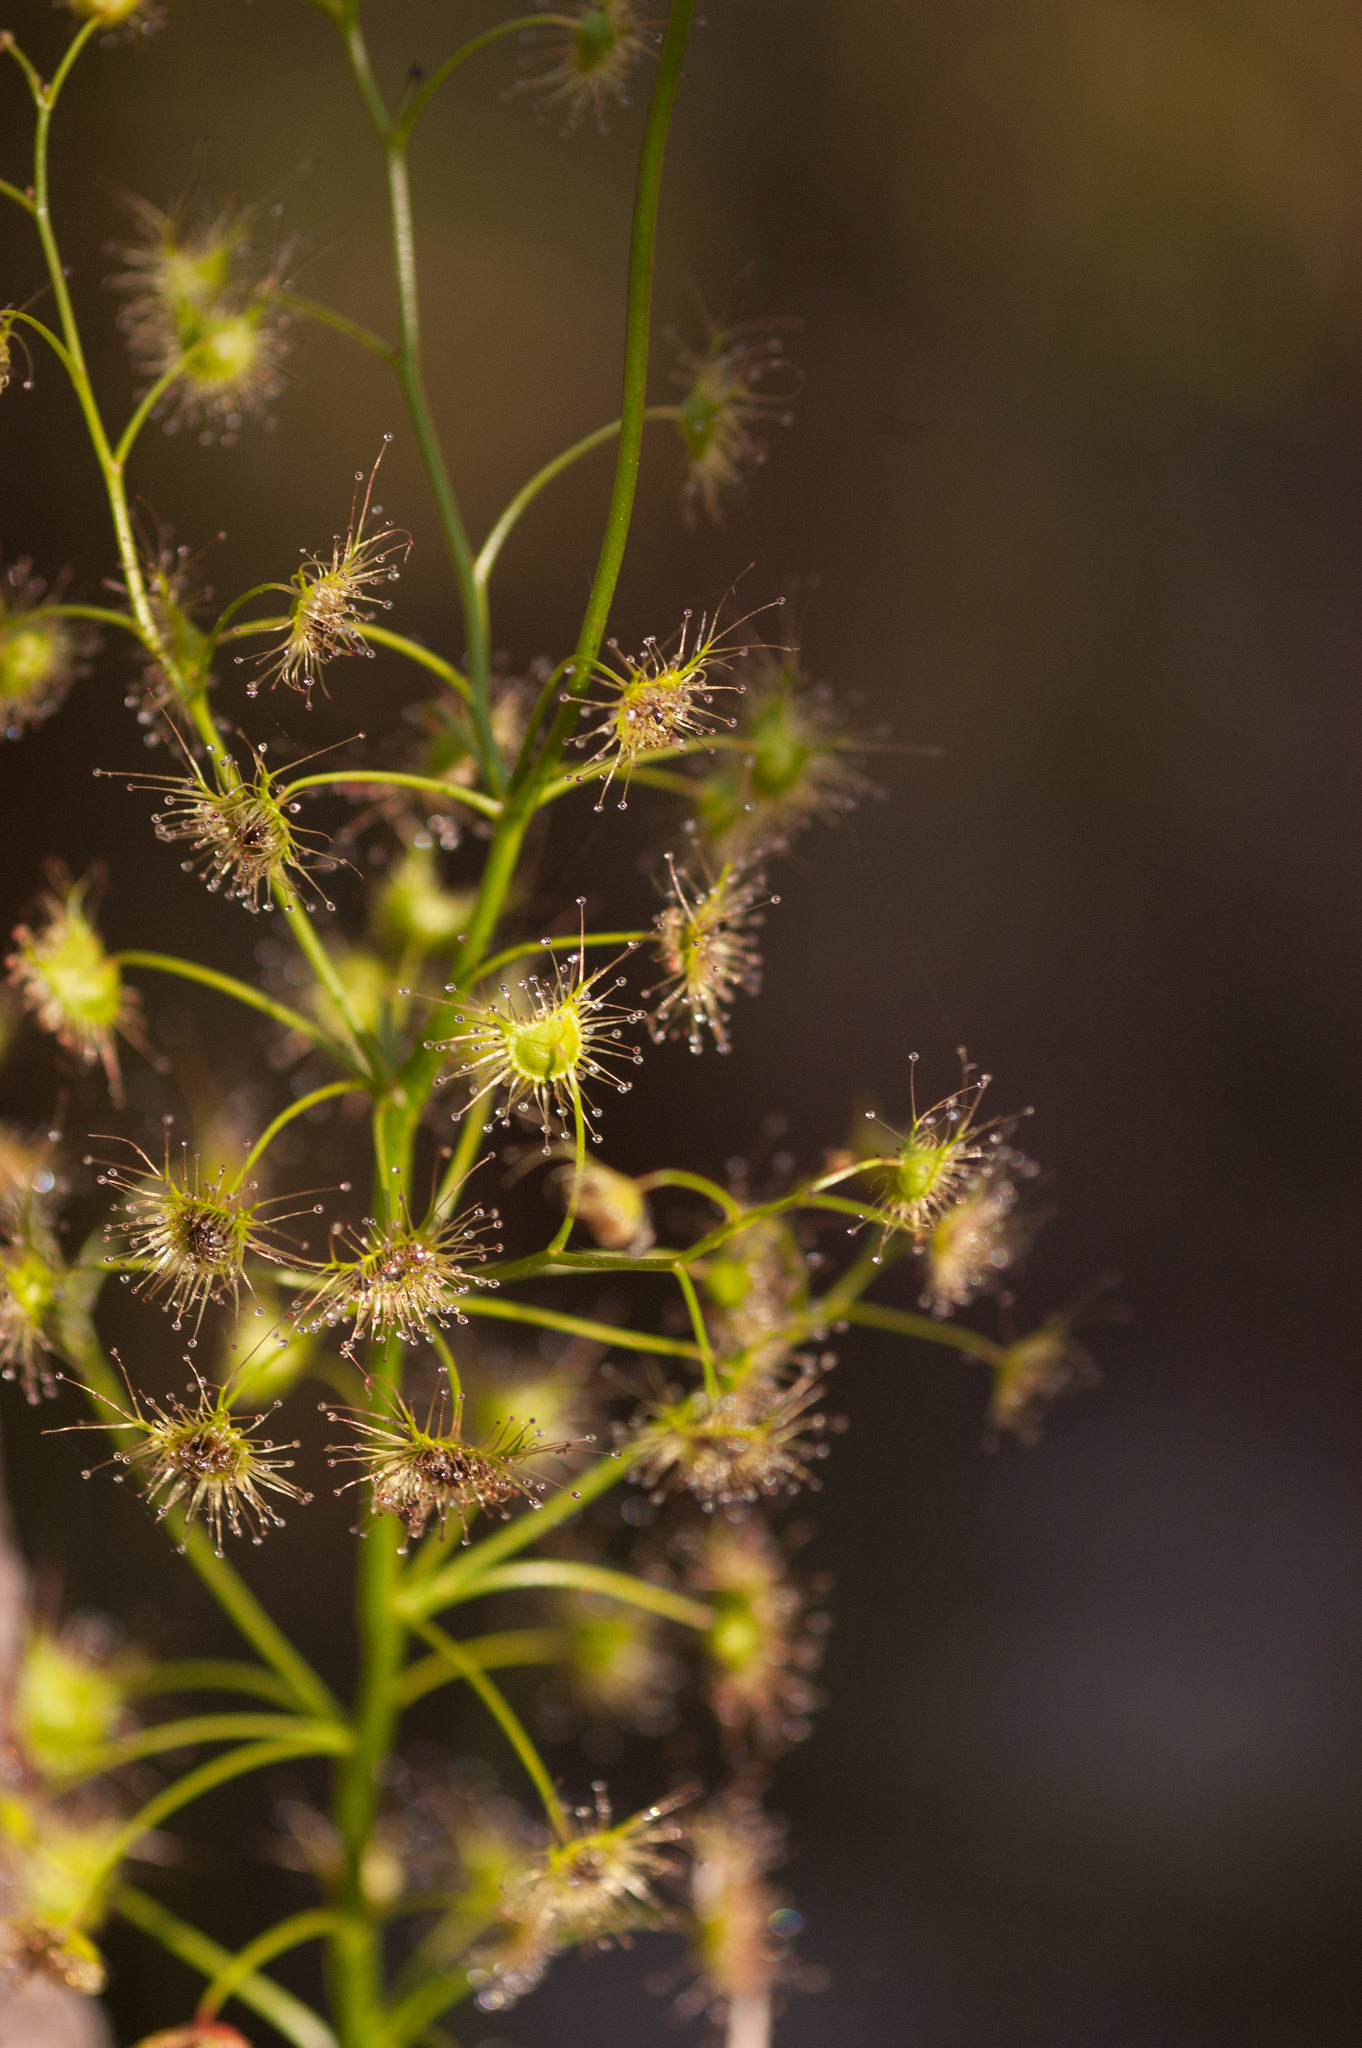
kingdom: Plantae
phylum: Tracheophyta
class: Magnoliopsida
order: Caryophyllales
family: Droseraceae
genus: Drosera
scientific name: Drosera peltata
